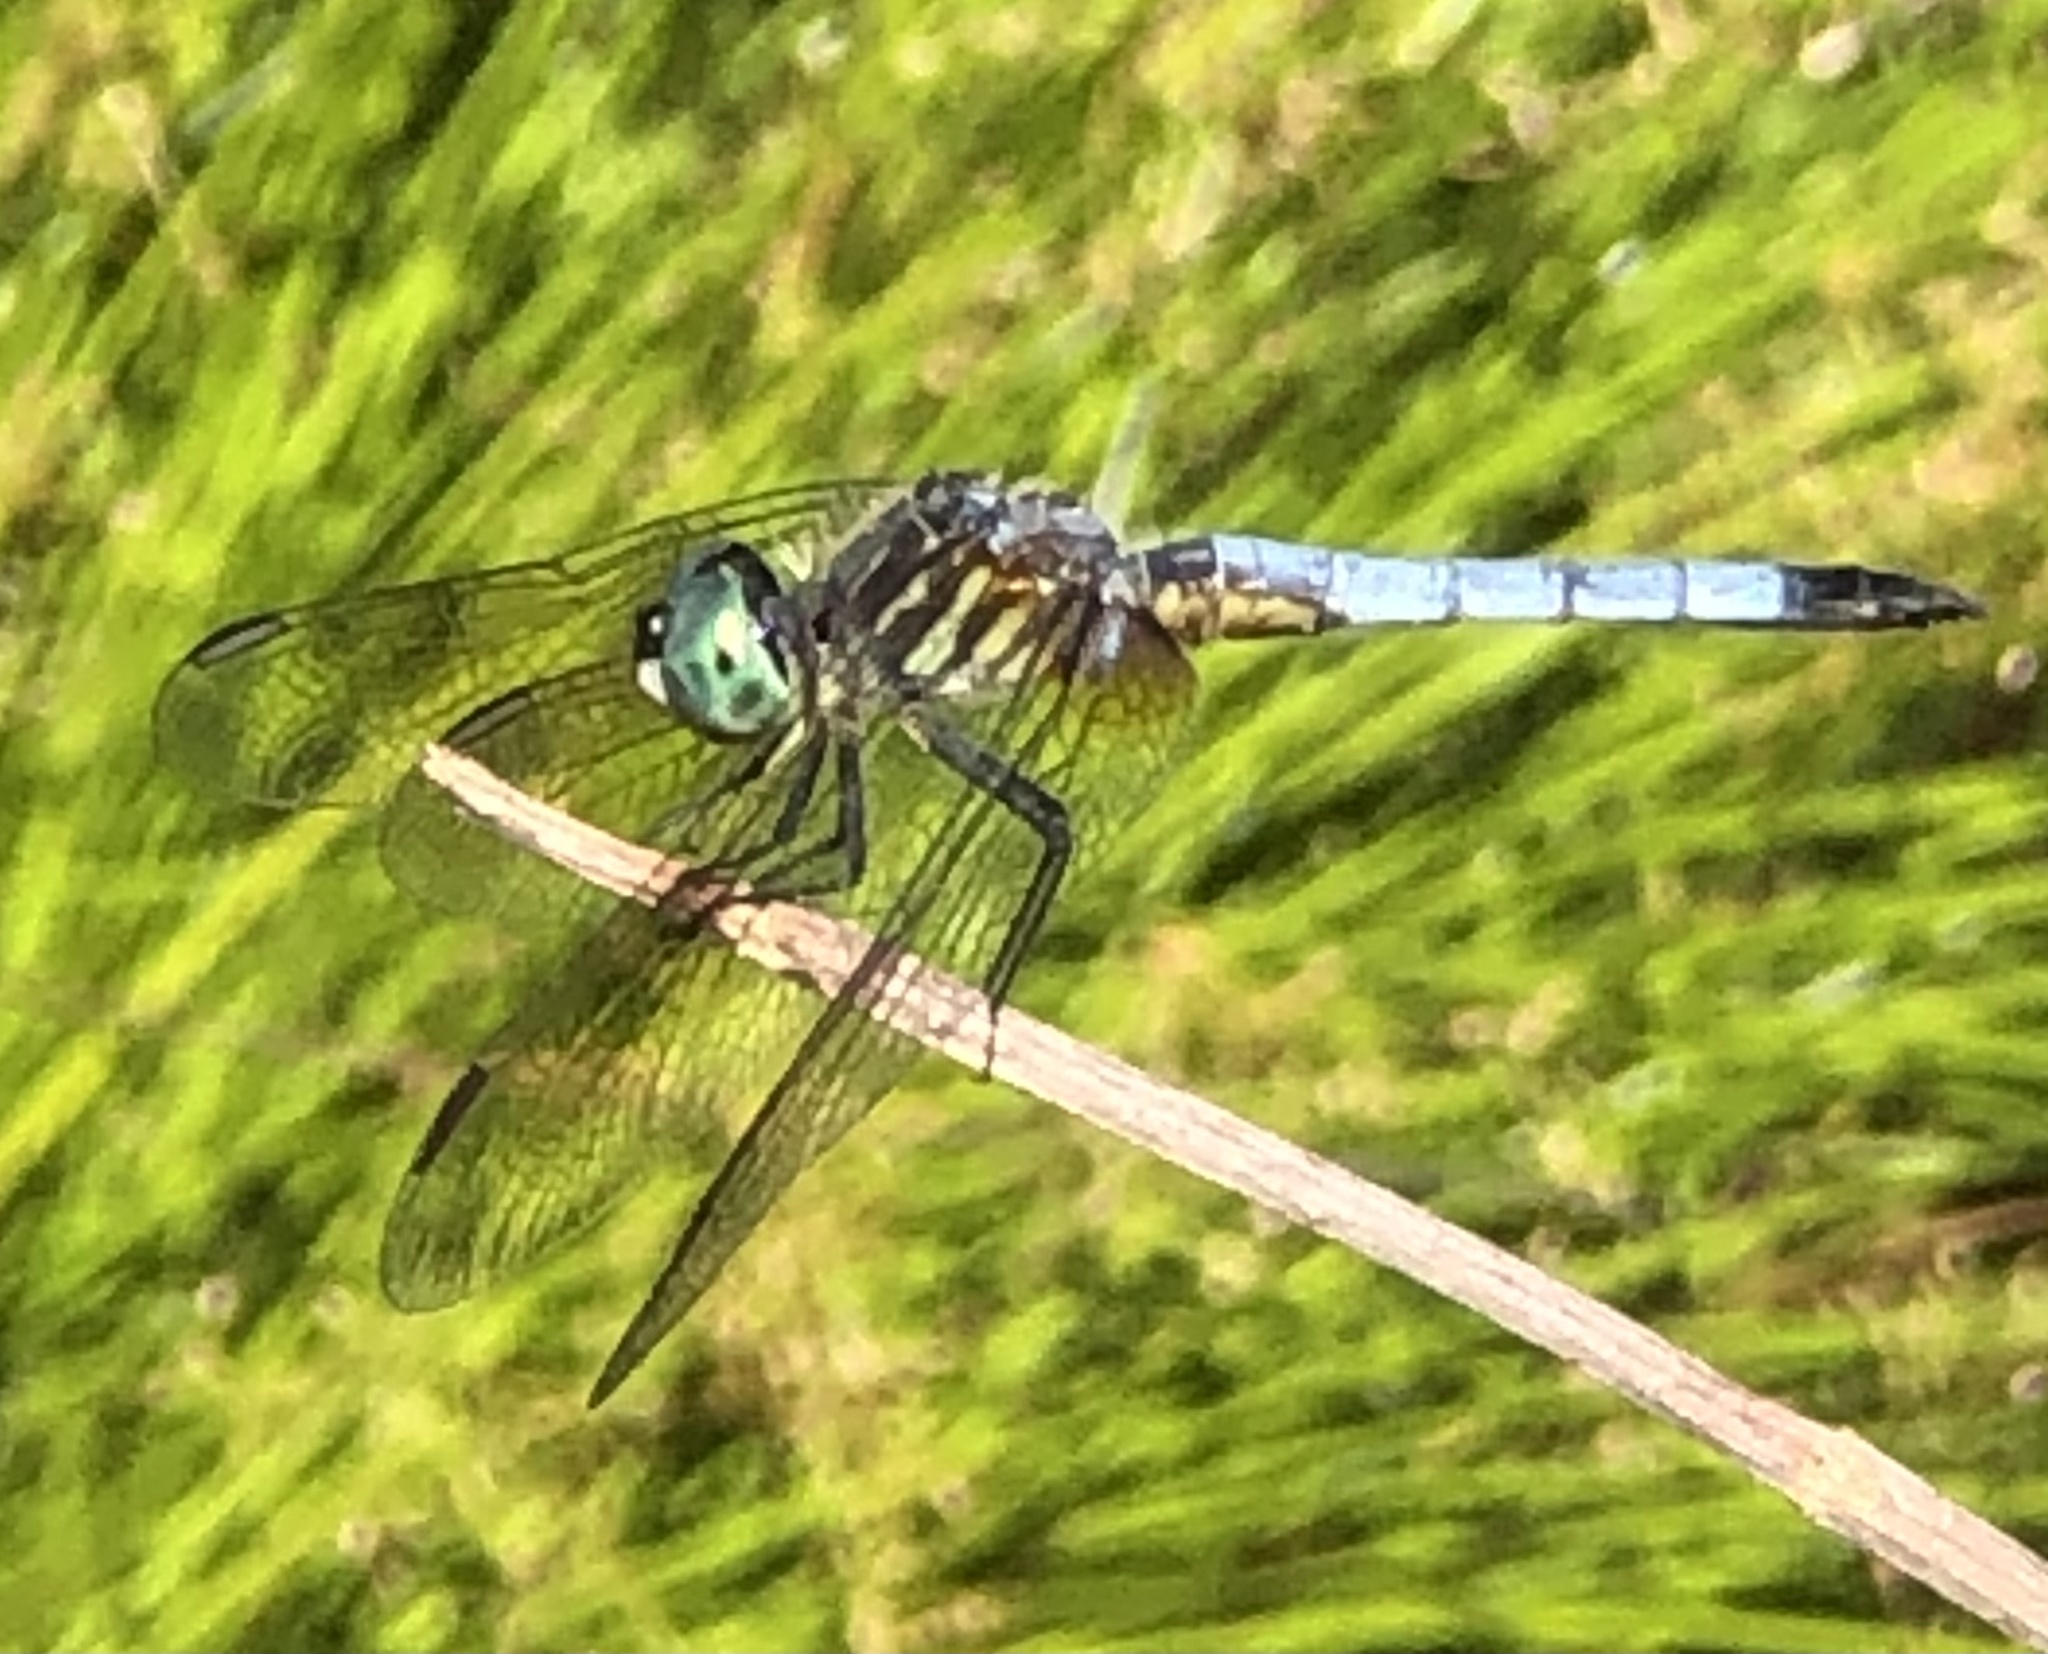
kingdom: Animalia
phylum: Arthropoda
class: Insecta
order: Odonata
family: Libellulidae
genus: Pachydiplax
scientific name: Pachydiplax longipennis
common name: Blue dasher
